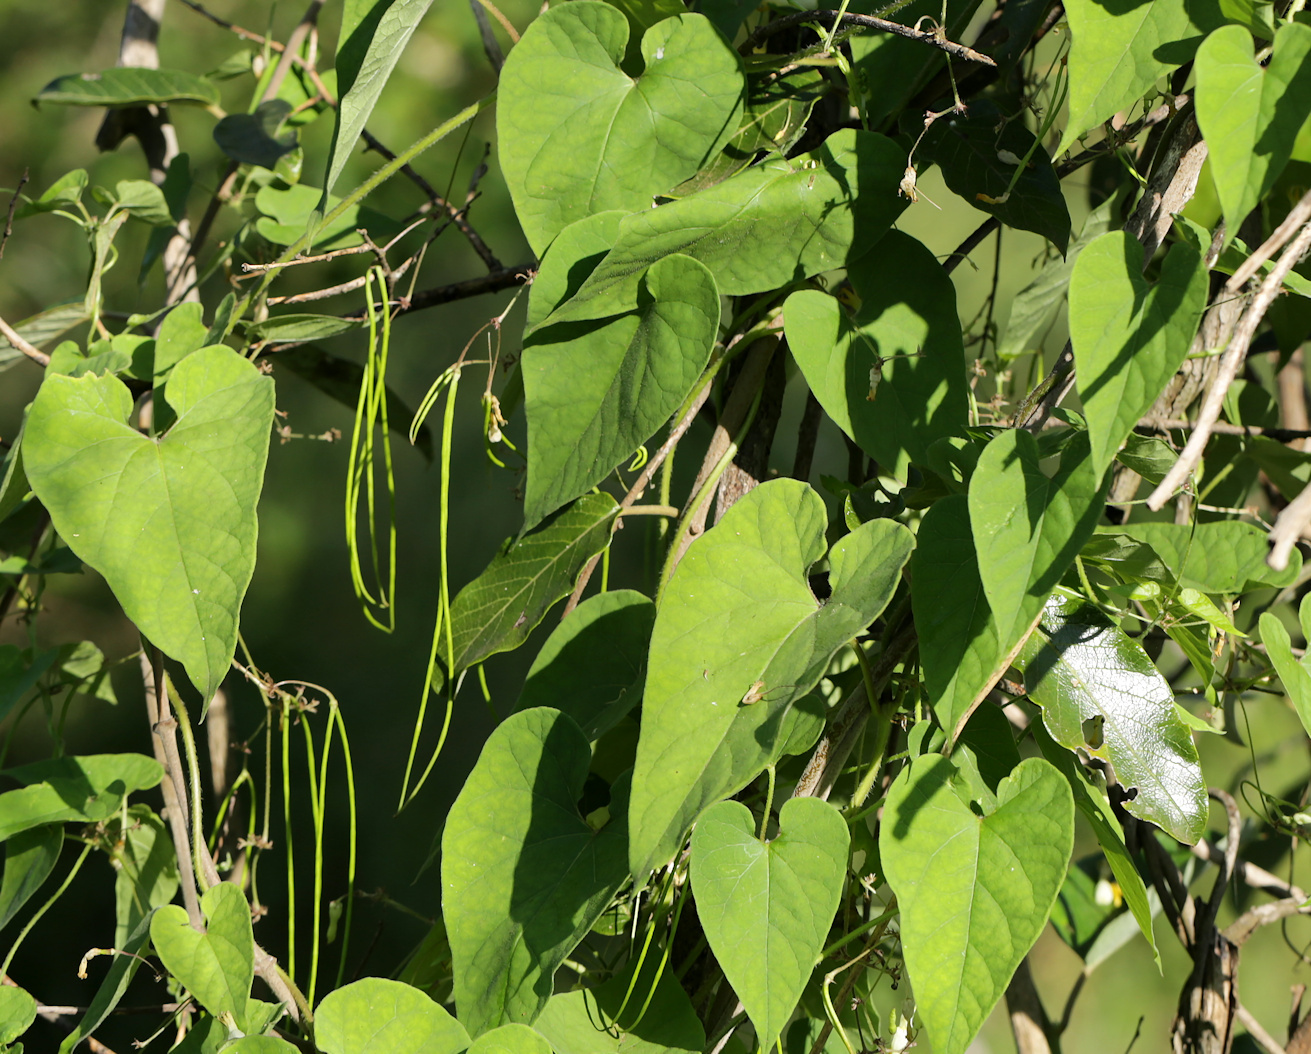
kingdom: Plantae
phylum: Tracheophyta
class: Magnoliopsida
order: Gentianales
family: Apocynaceae
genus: Riocreuxia
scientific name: Riocreuxia torulosa
